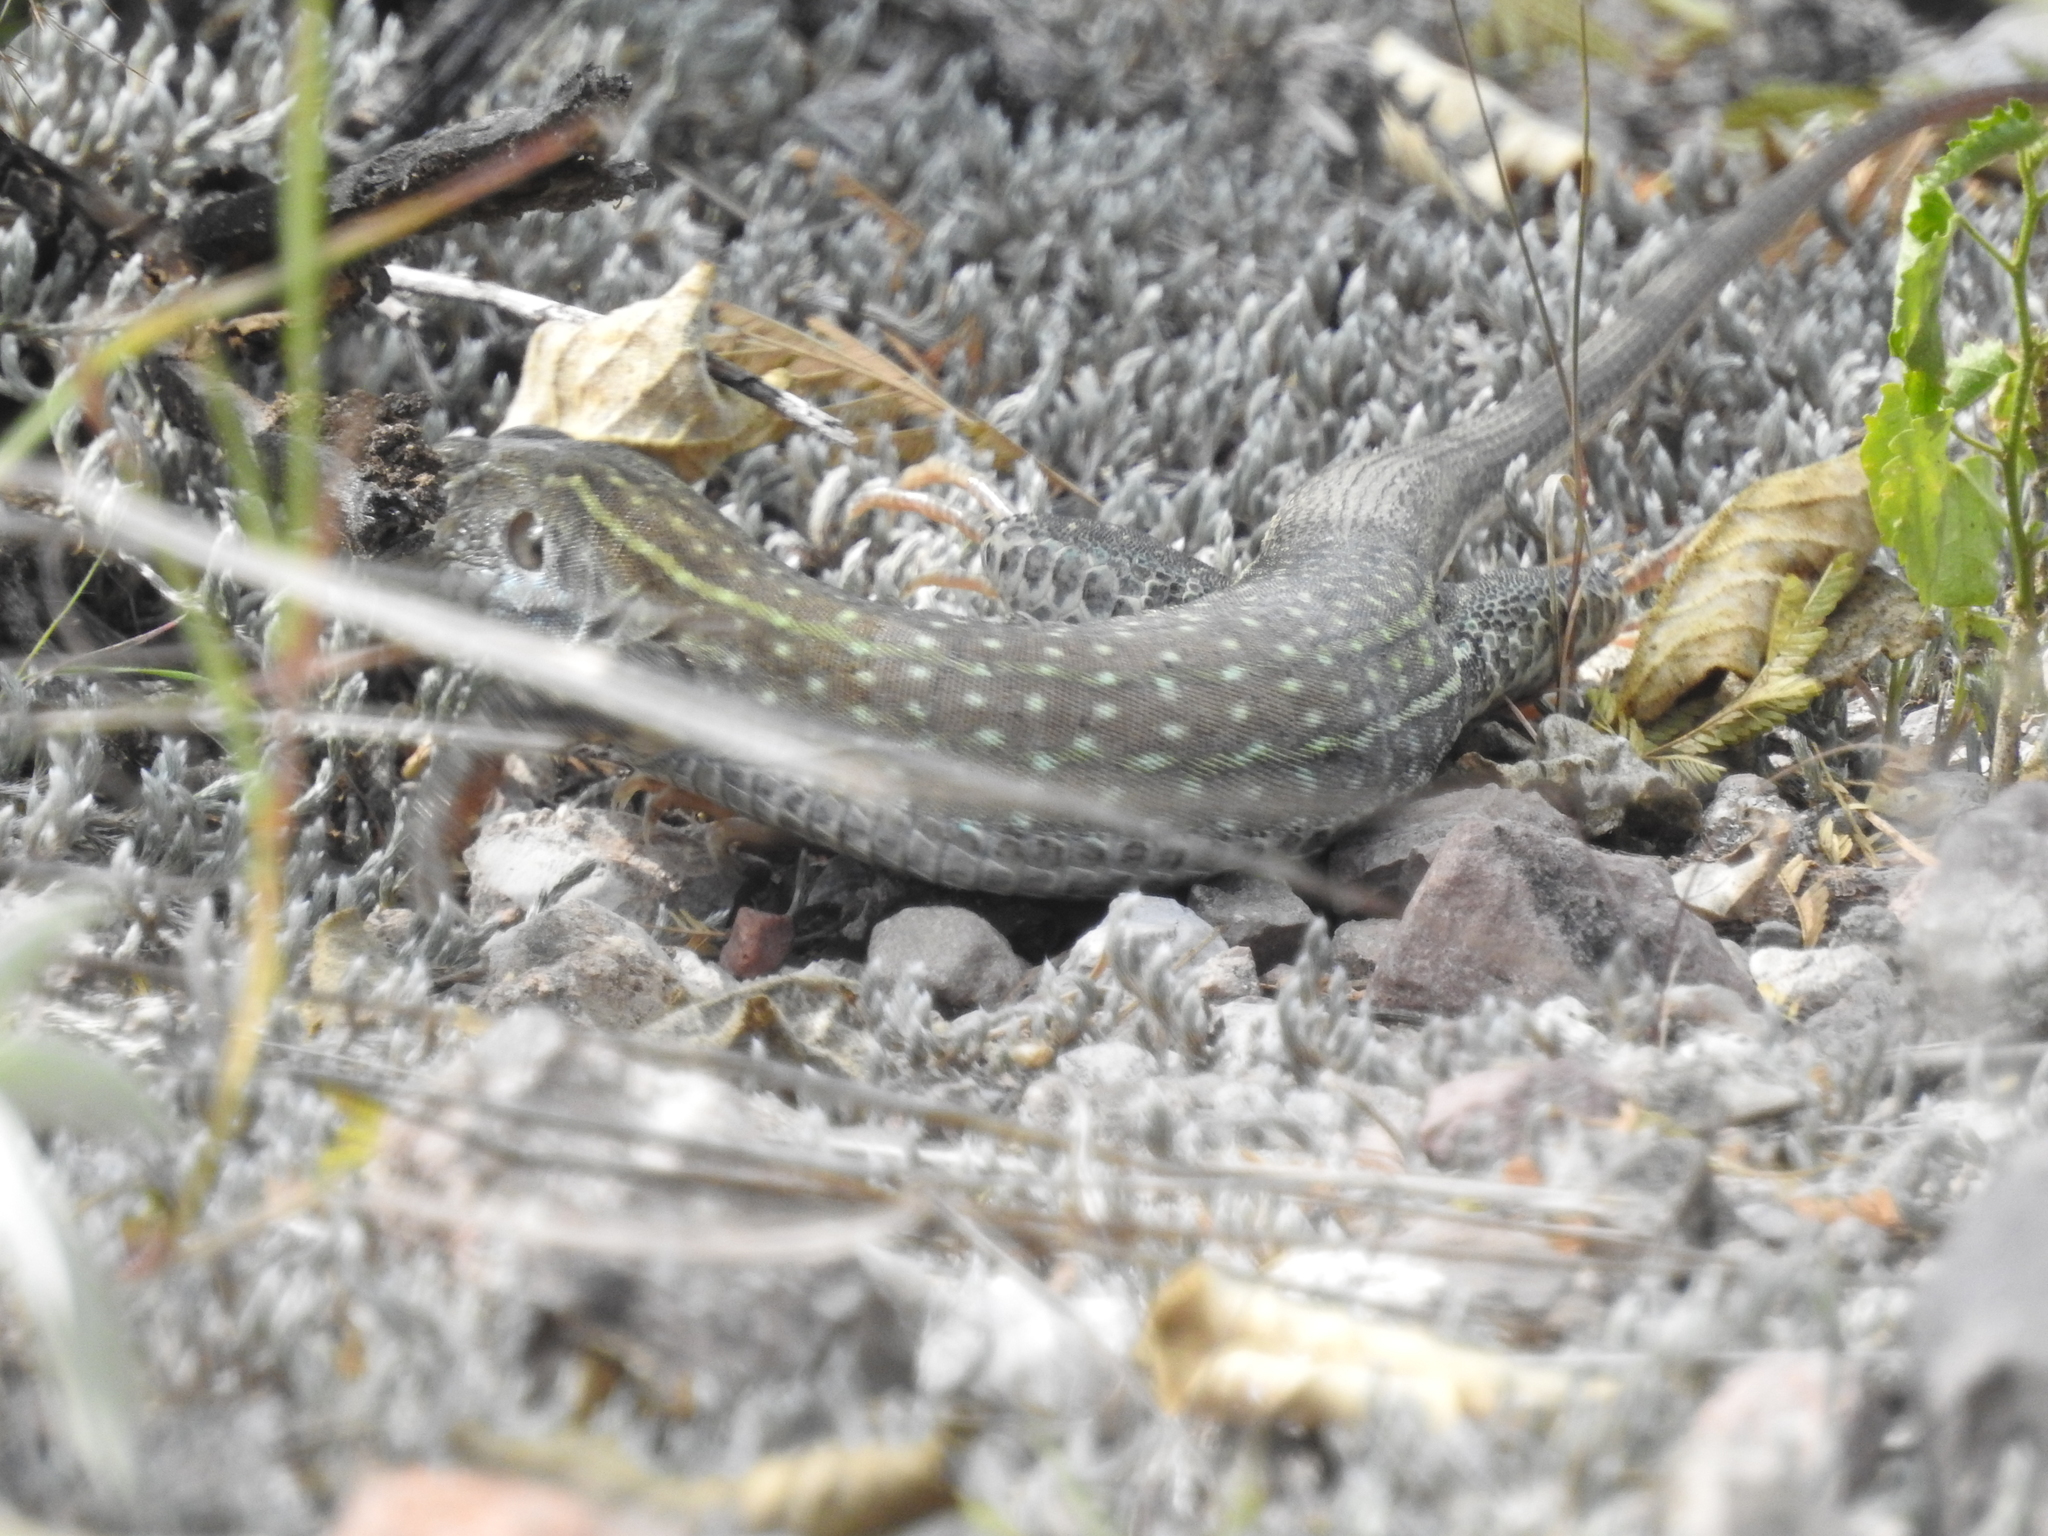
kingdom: Animalia
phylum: Chordata
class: Squamata
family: Teiidae
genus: Dicrodon
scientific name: Dicrodon guttulatum
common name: Peru desert tegu
